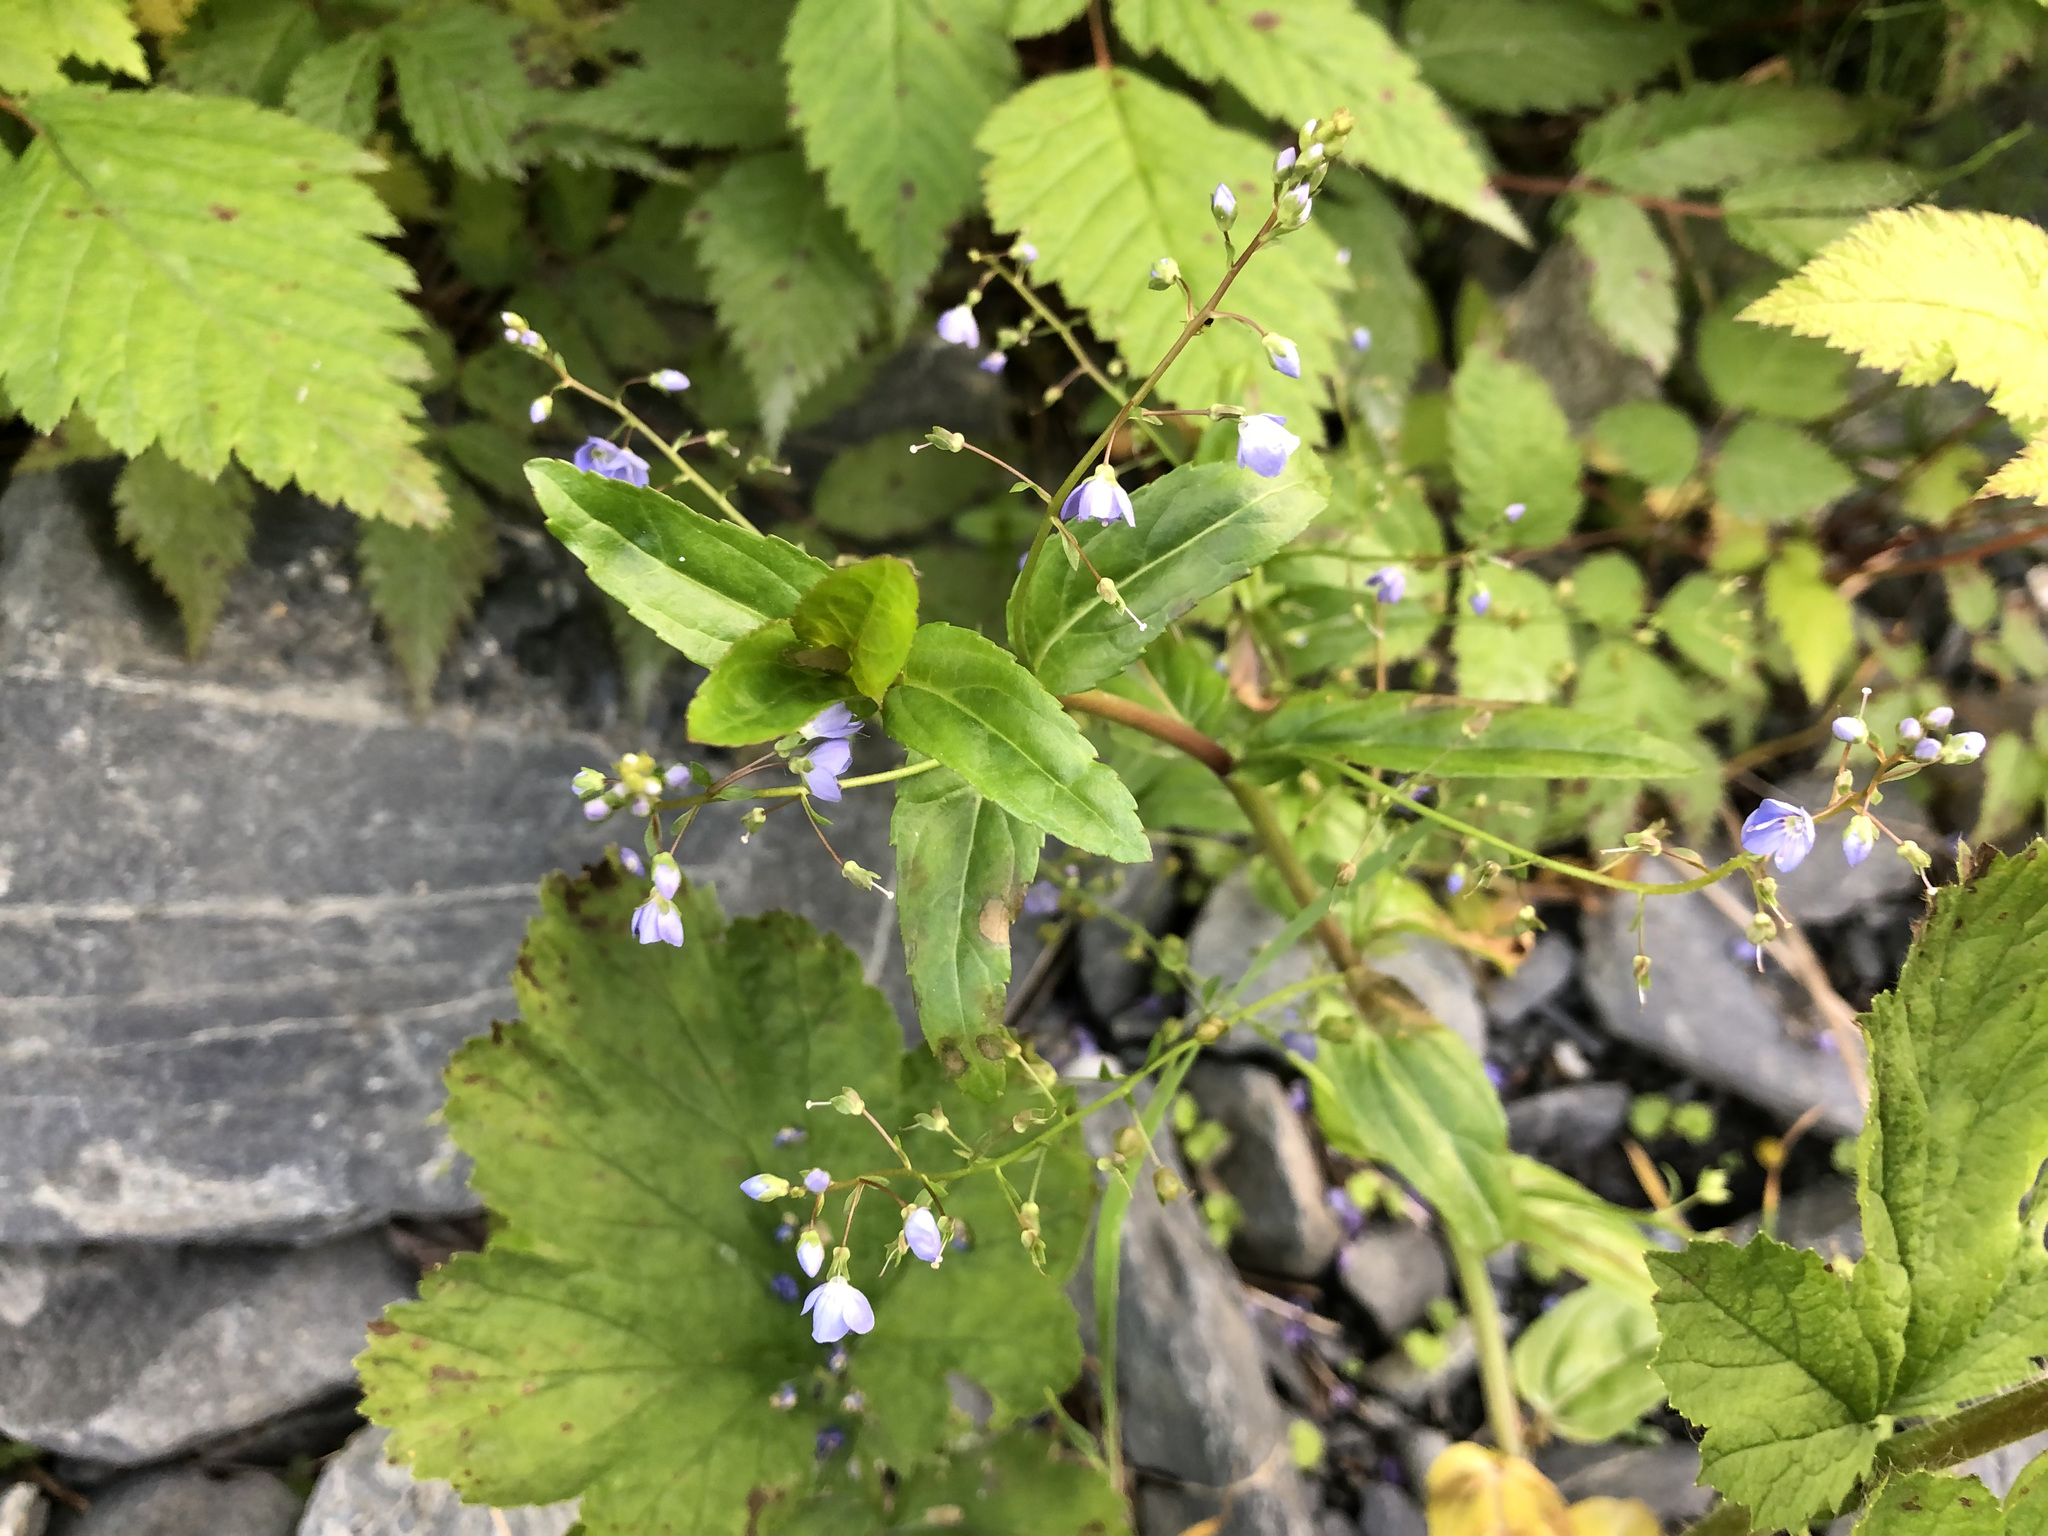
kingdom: Plantae
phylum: Tracheophyta
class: Magnoliopsida
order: Lamiales
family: Plantaginaceae
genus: Veronica
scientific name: Veronica americana
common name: American brooklime
